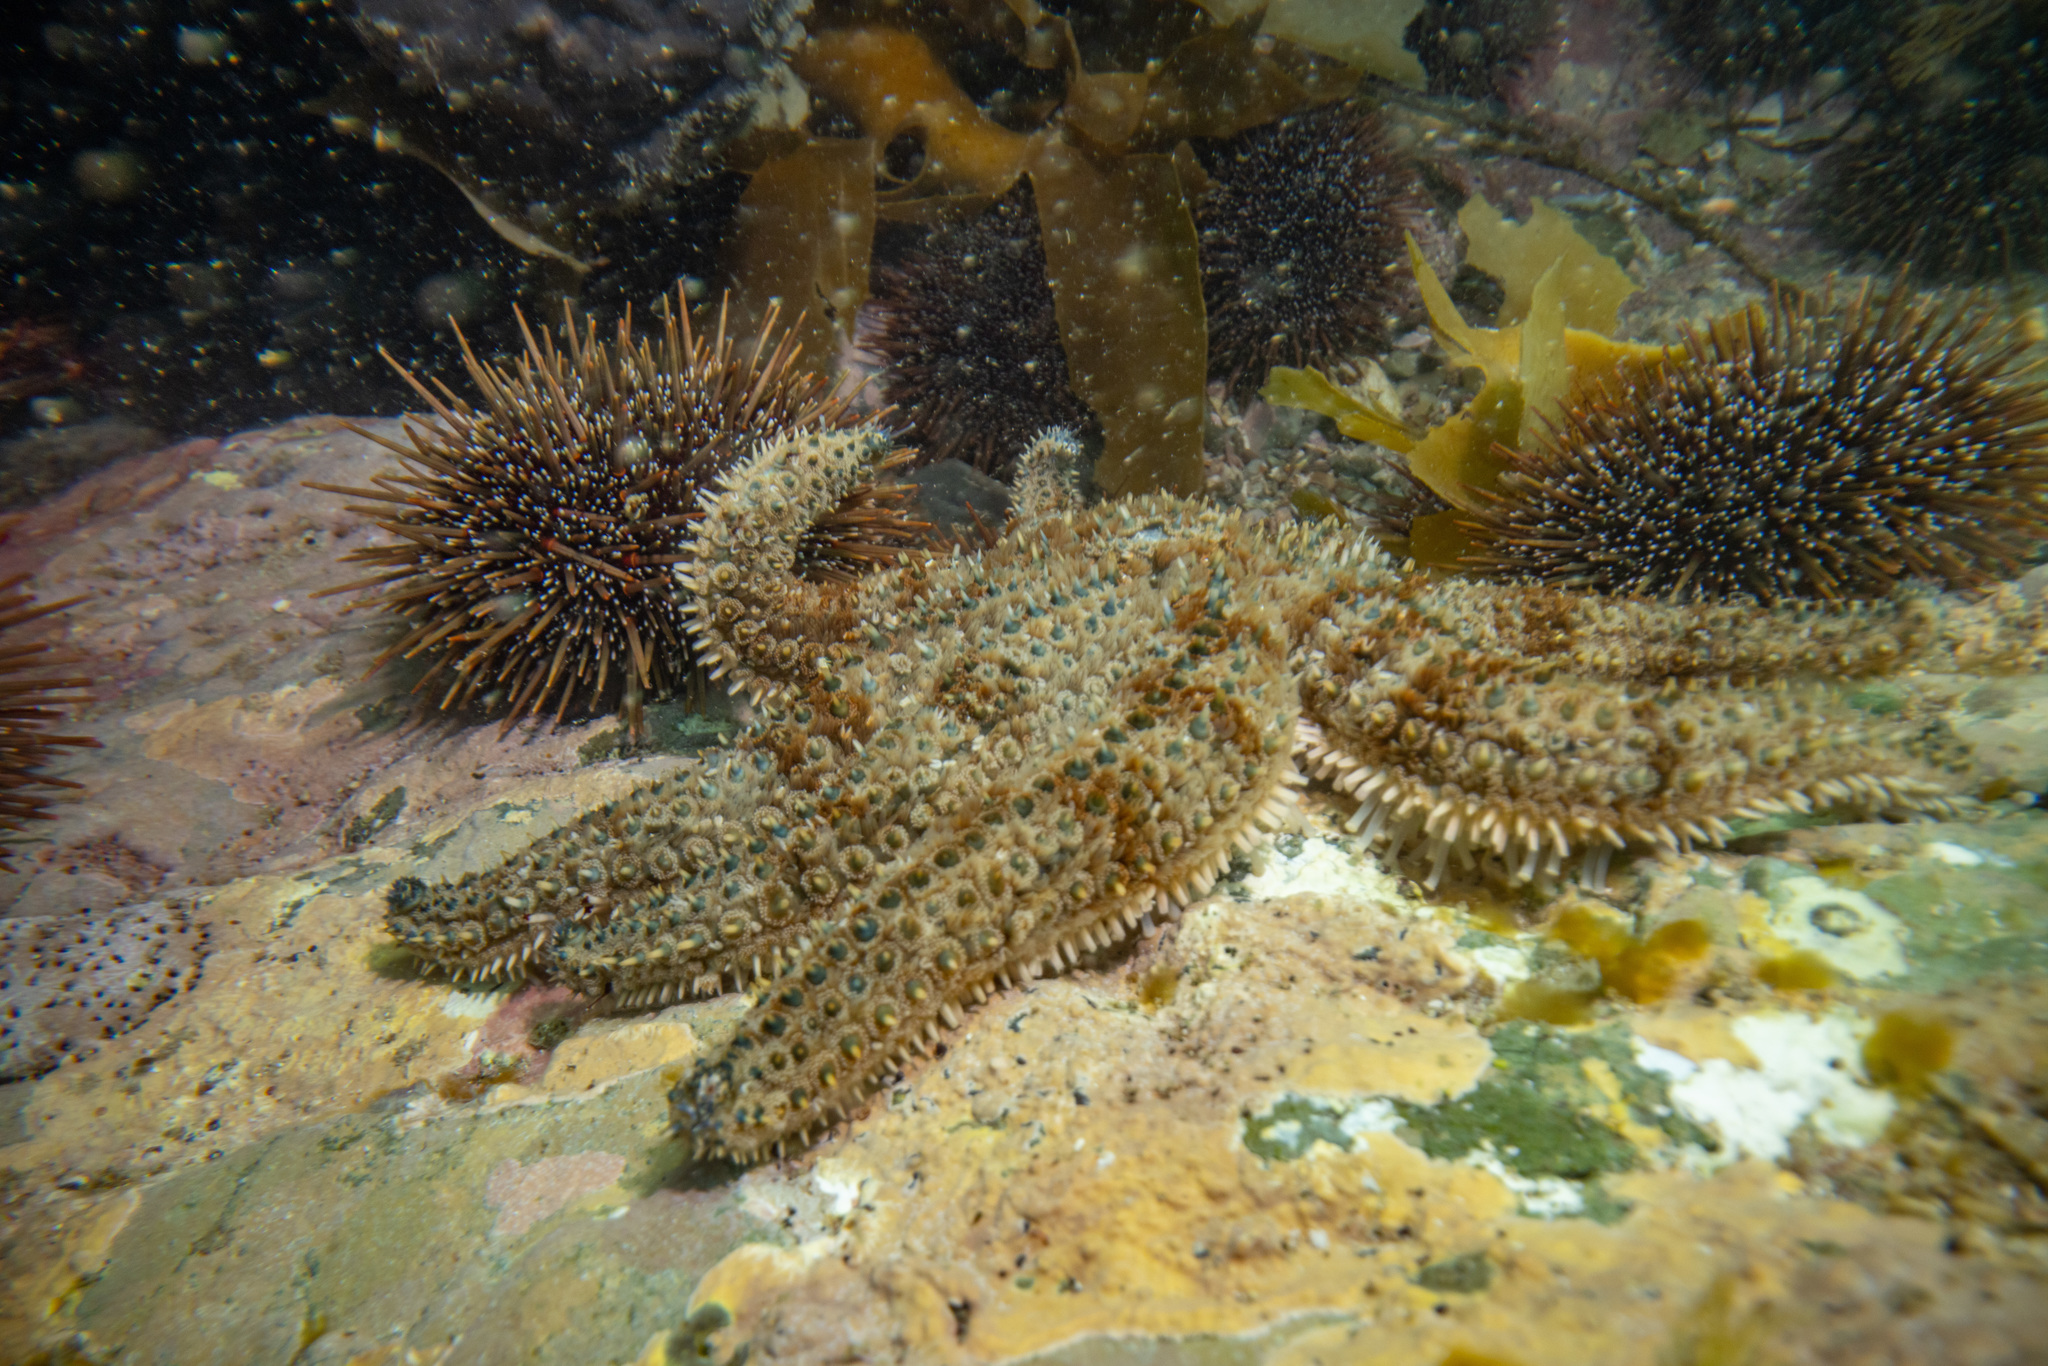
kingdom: Animalia
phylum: Echinodermata
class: Asteroidea
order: Forcipulatida
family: Asteriidae
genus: Coscinasterias
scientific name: Coscinasterias muricata
